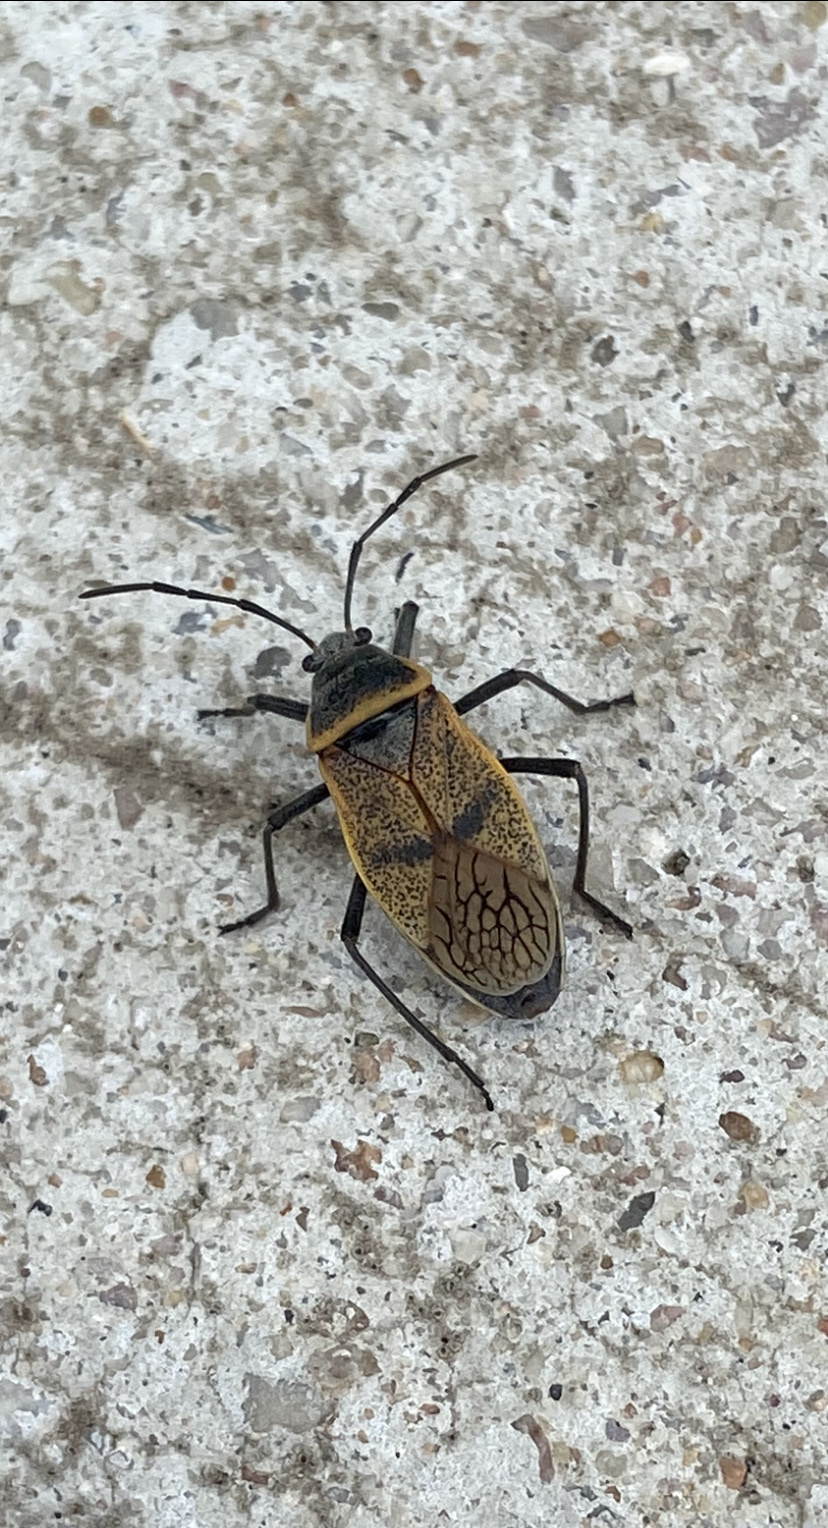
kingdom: Animalia
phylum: Arthropoda
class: Insecta
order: Hemiptera
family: Largidae
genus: Largus
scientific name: Largus maculatus
